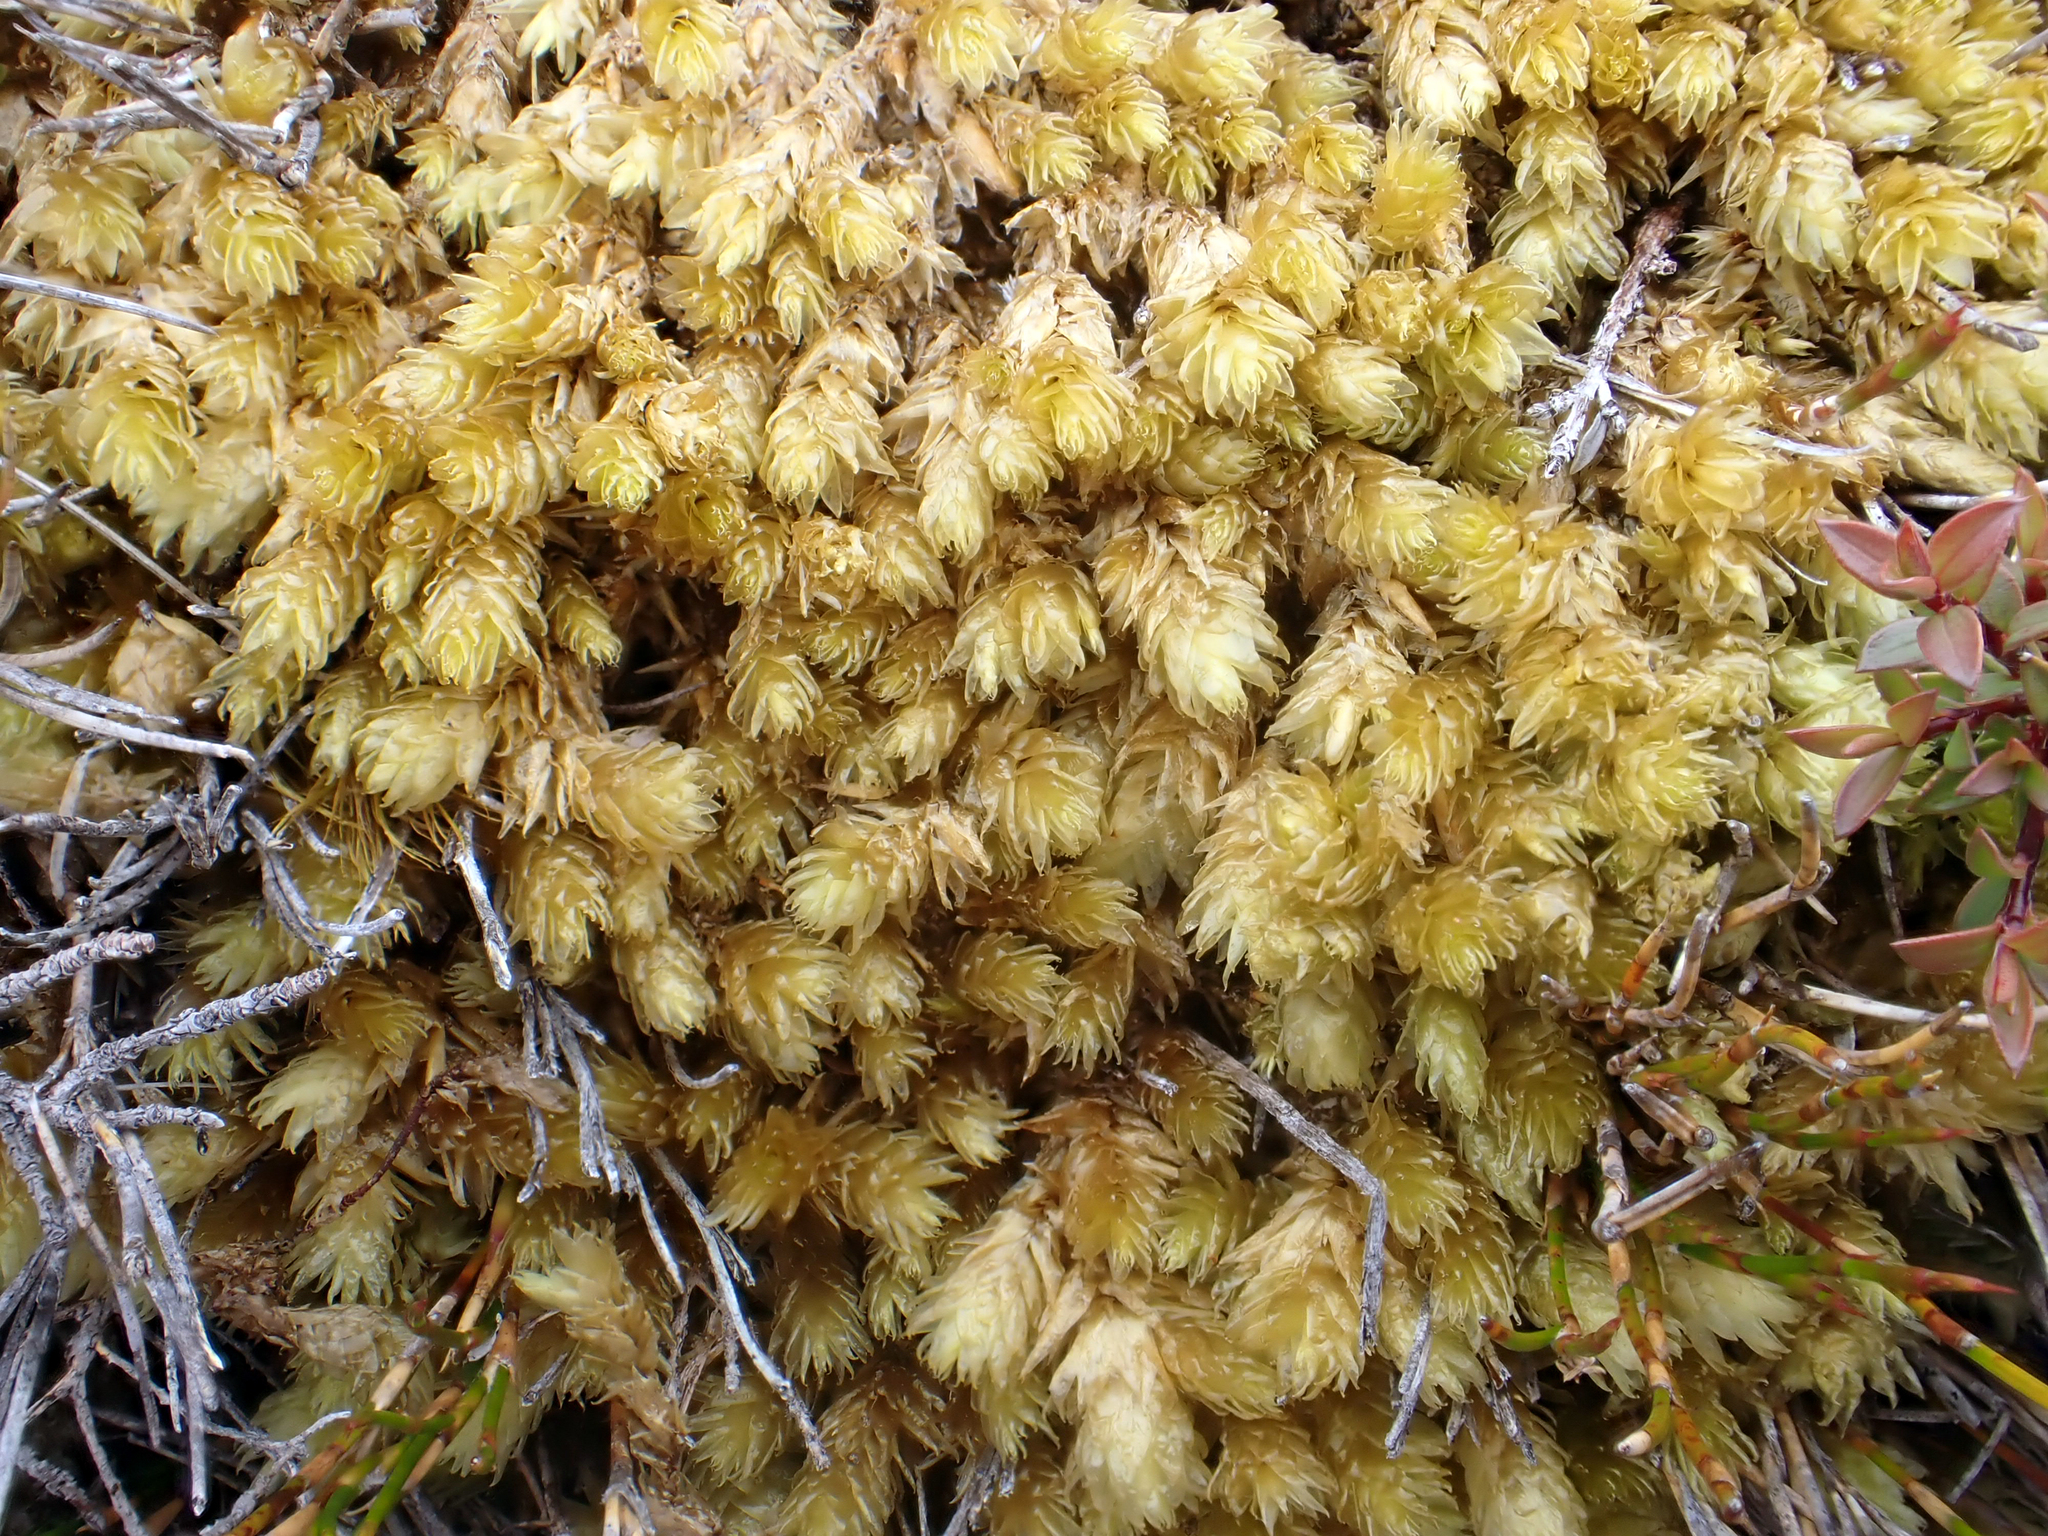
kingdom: Plantae
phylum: Bryophyta
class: Bryopsida
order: Bryales
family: Pulchrinodaceae
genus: Pulchrinodus
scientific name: Pulchrinodus inflatus
